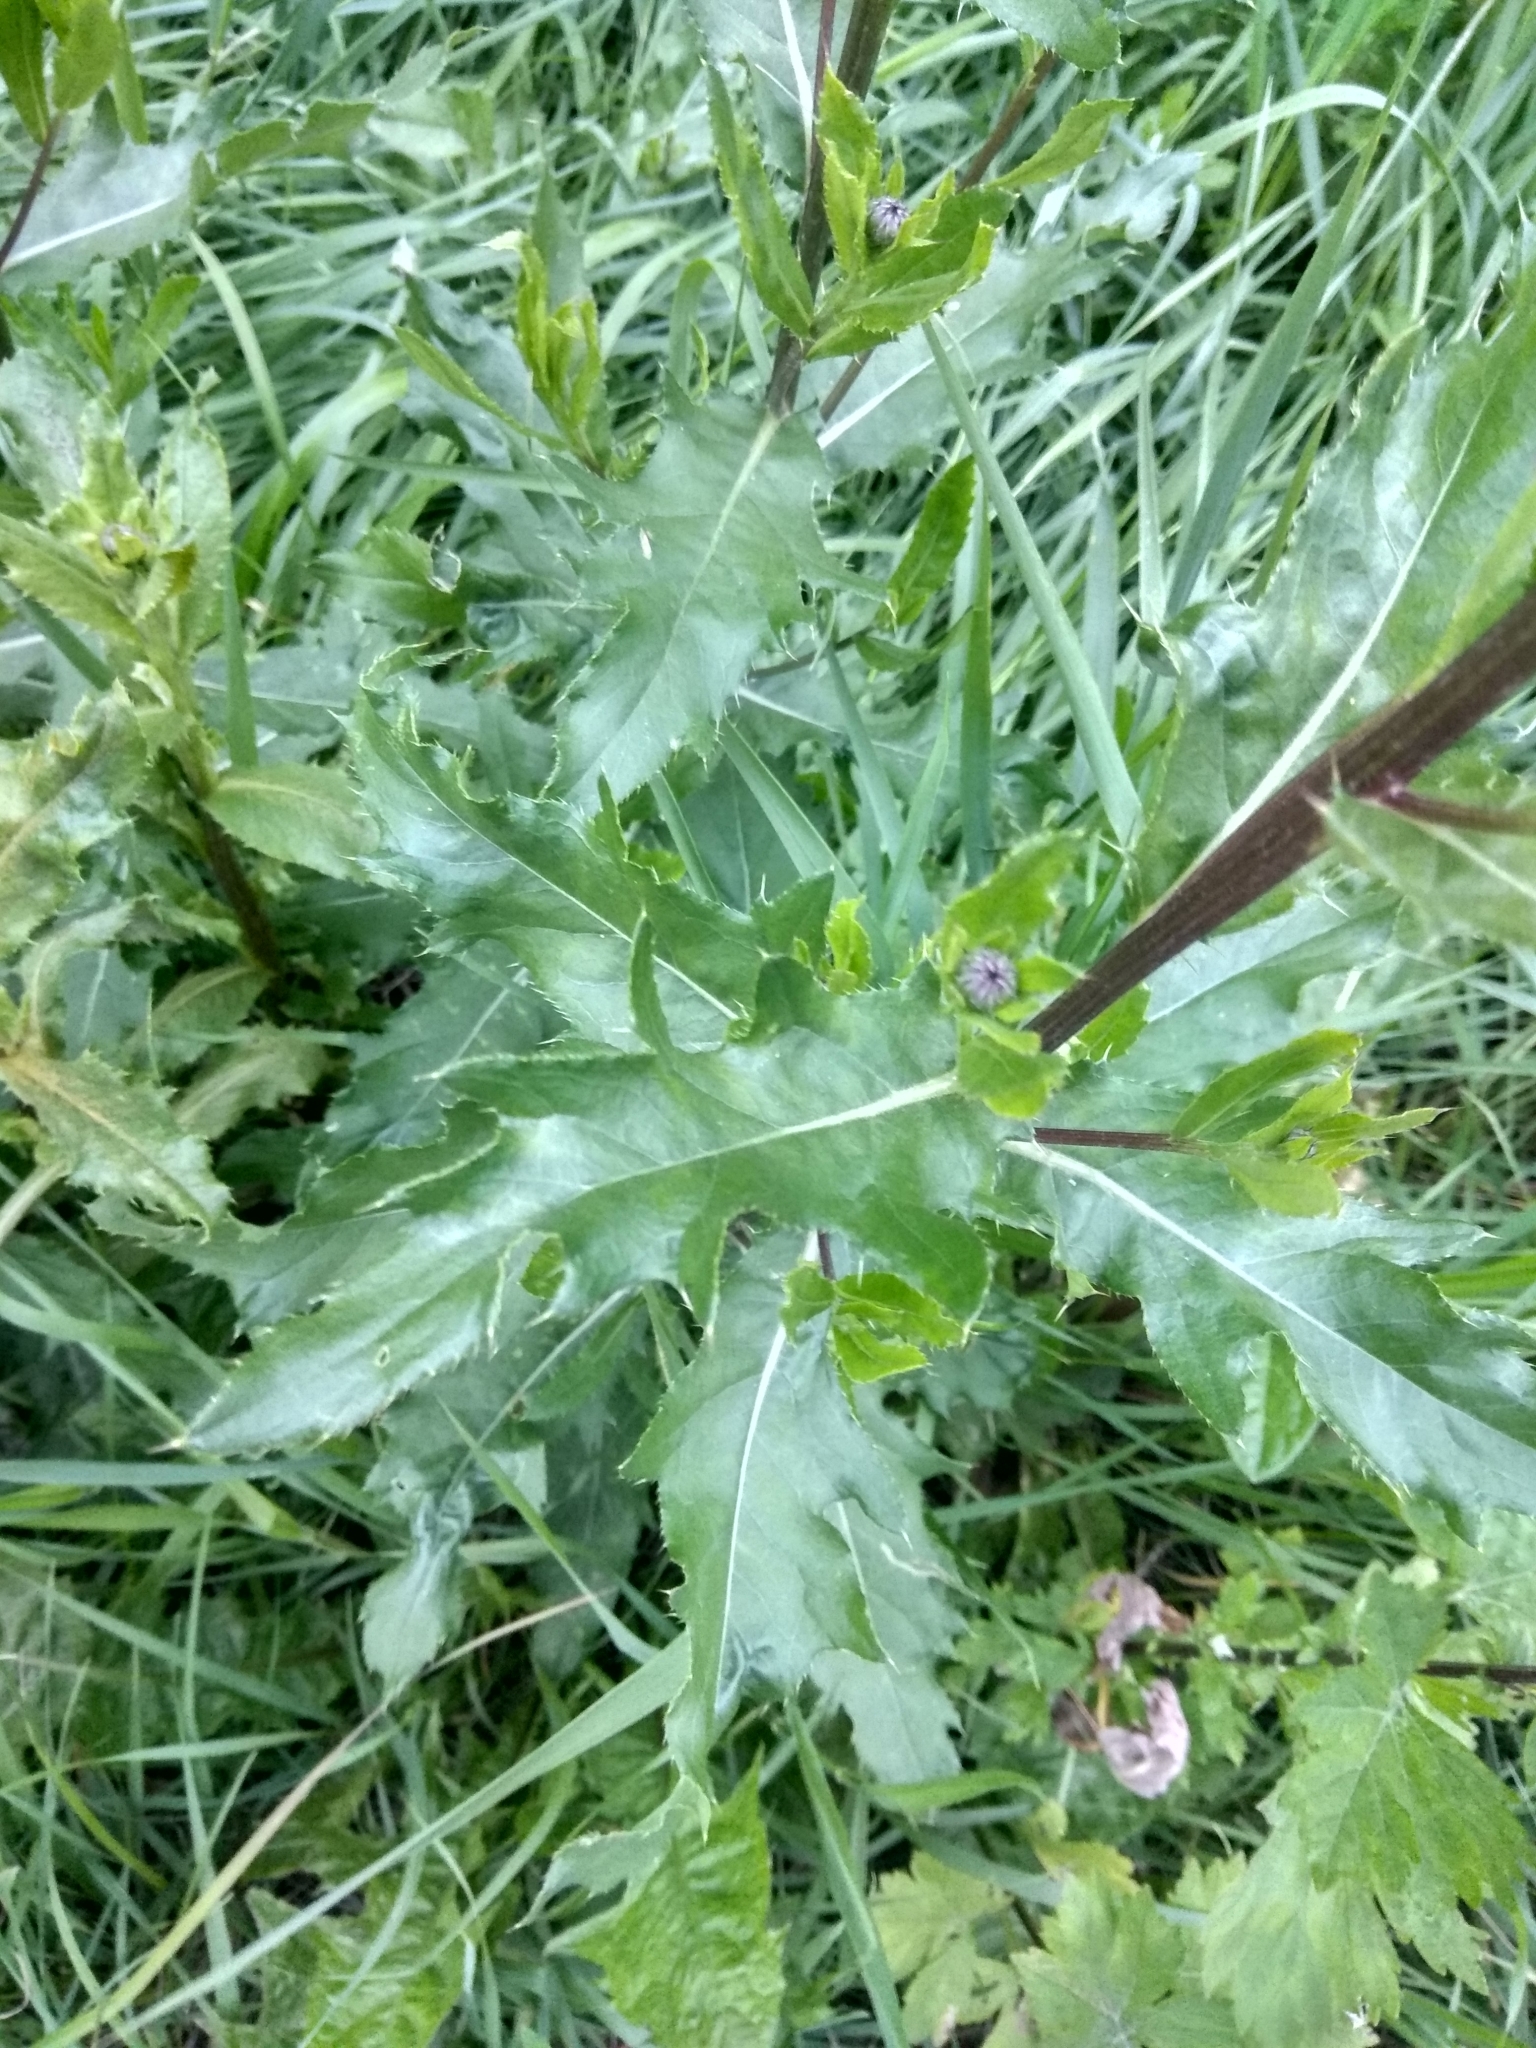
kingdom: Plantae
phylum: Tracheophyta
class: Magnoliopsida
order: Asterales
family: Asteraceae
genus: Cirsium
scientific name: Cirsium arvense
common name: Creeping thistle
